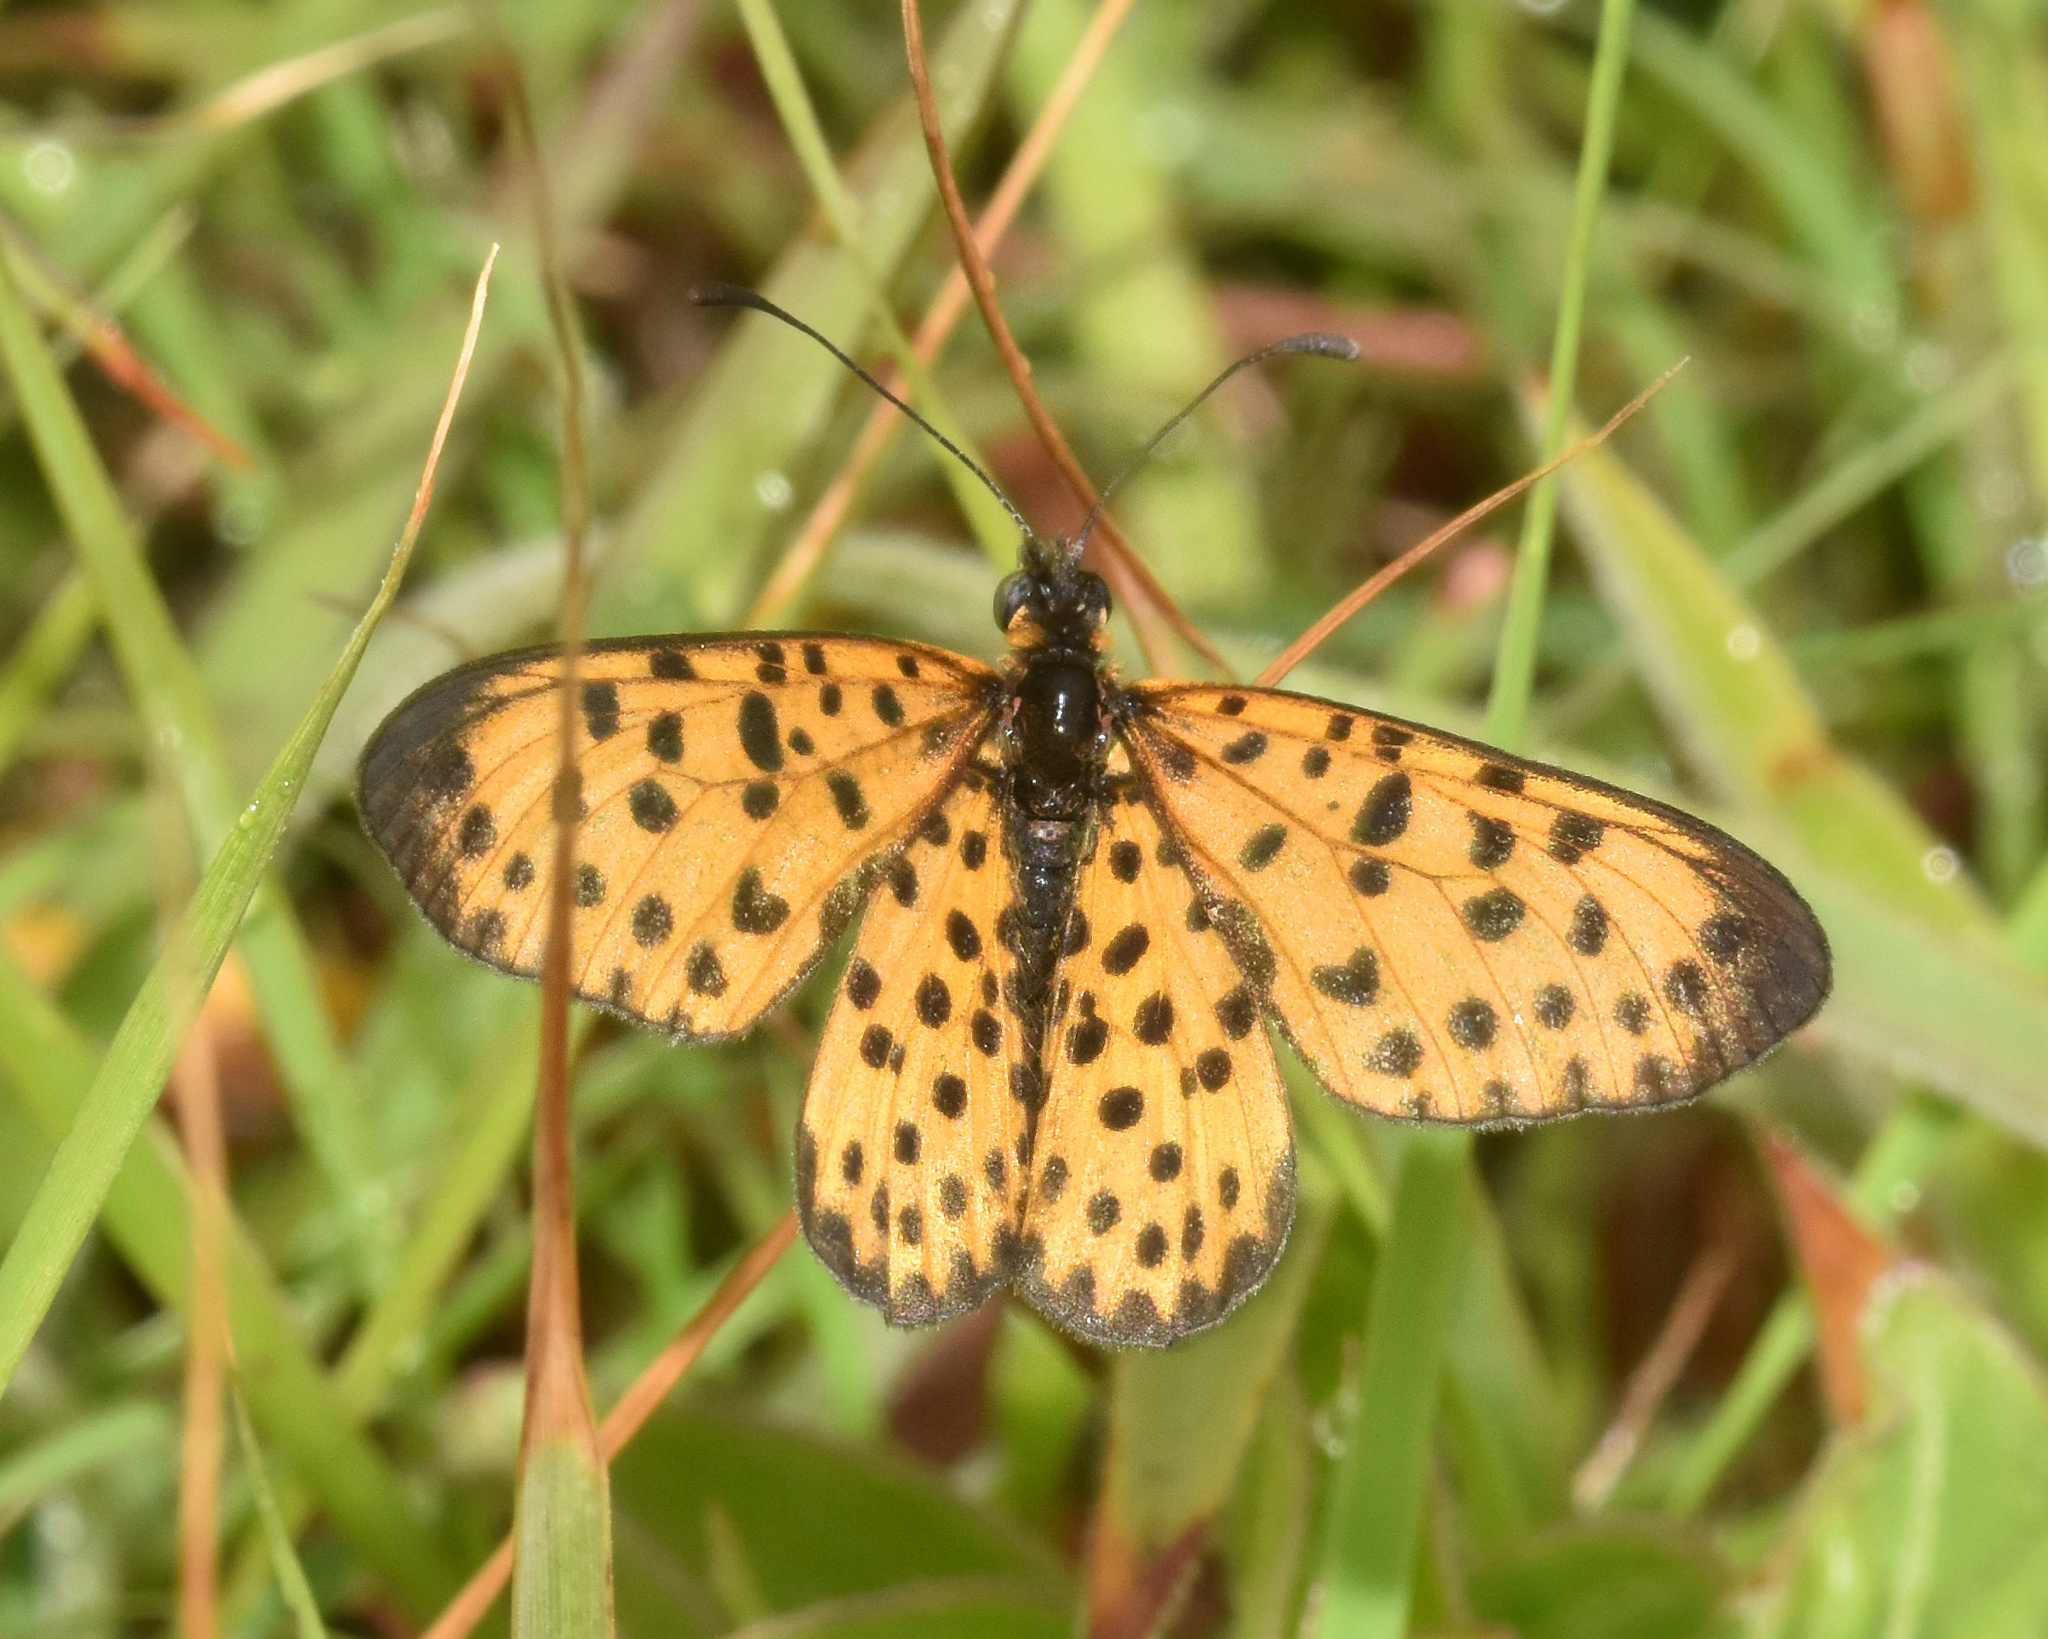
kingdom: Animalia
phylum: Arthropoda
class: Insecta
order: Lepidoptera
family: Nymphalidae
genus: Pardopsis
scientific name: Pardopsis punctatissima
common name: Polka dot
